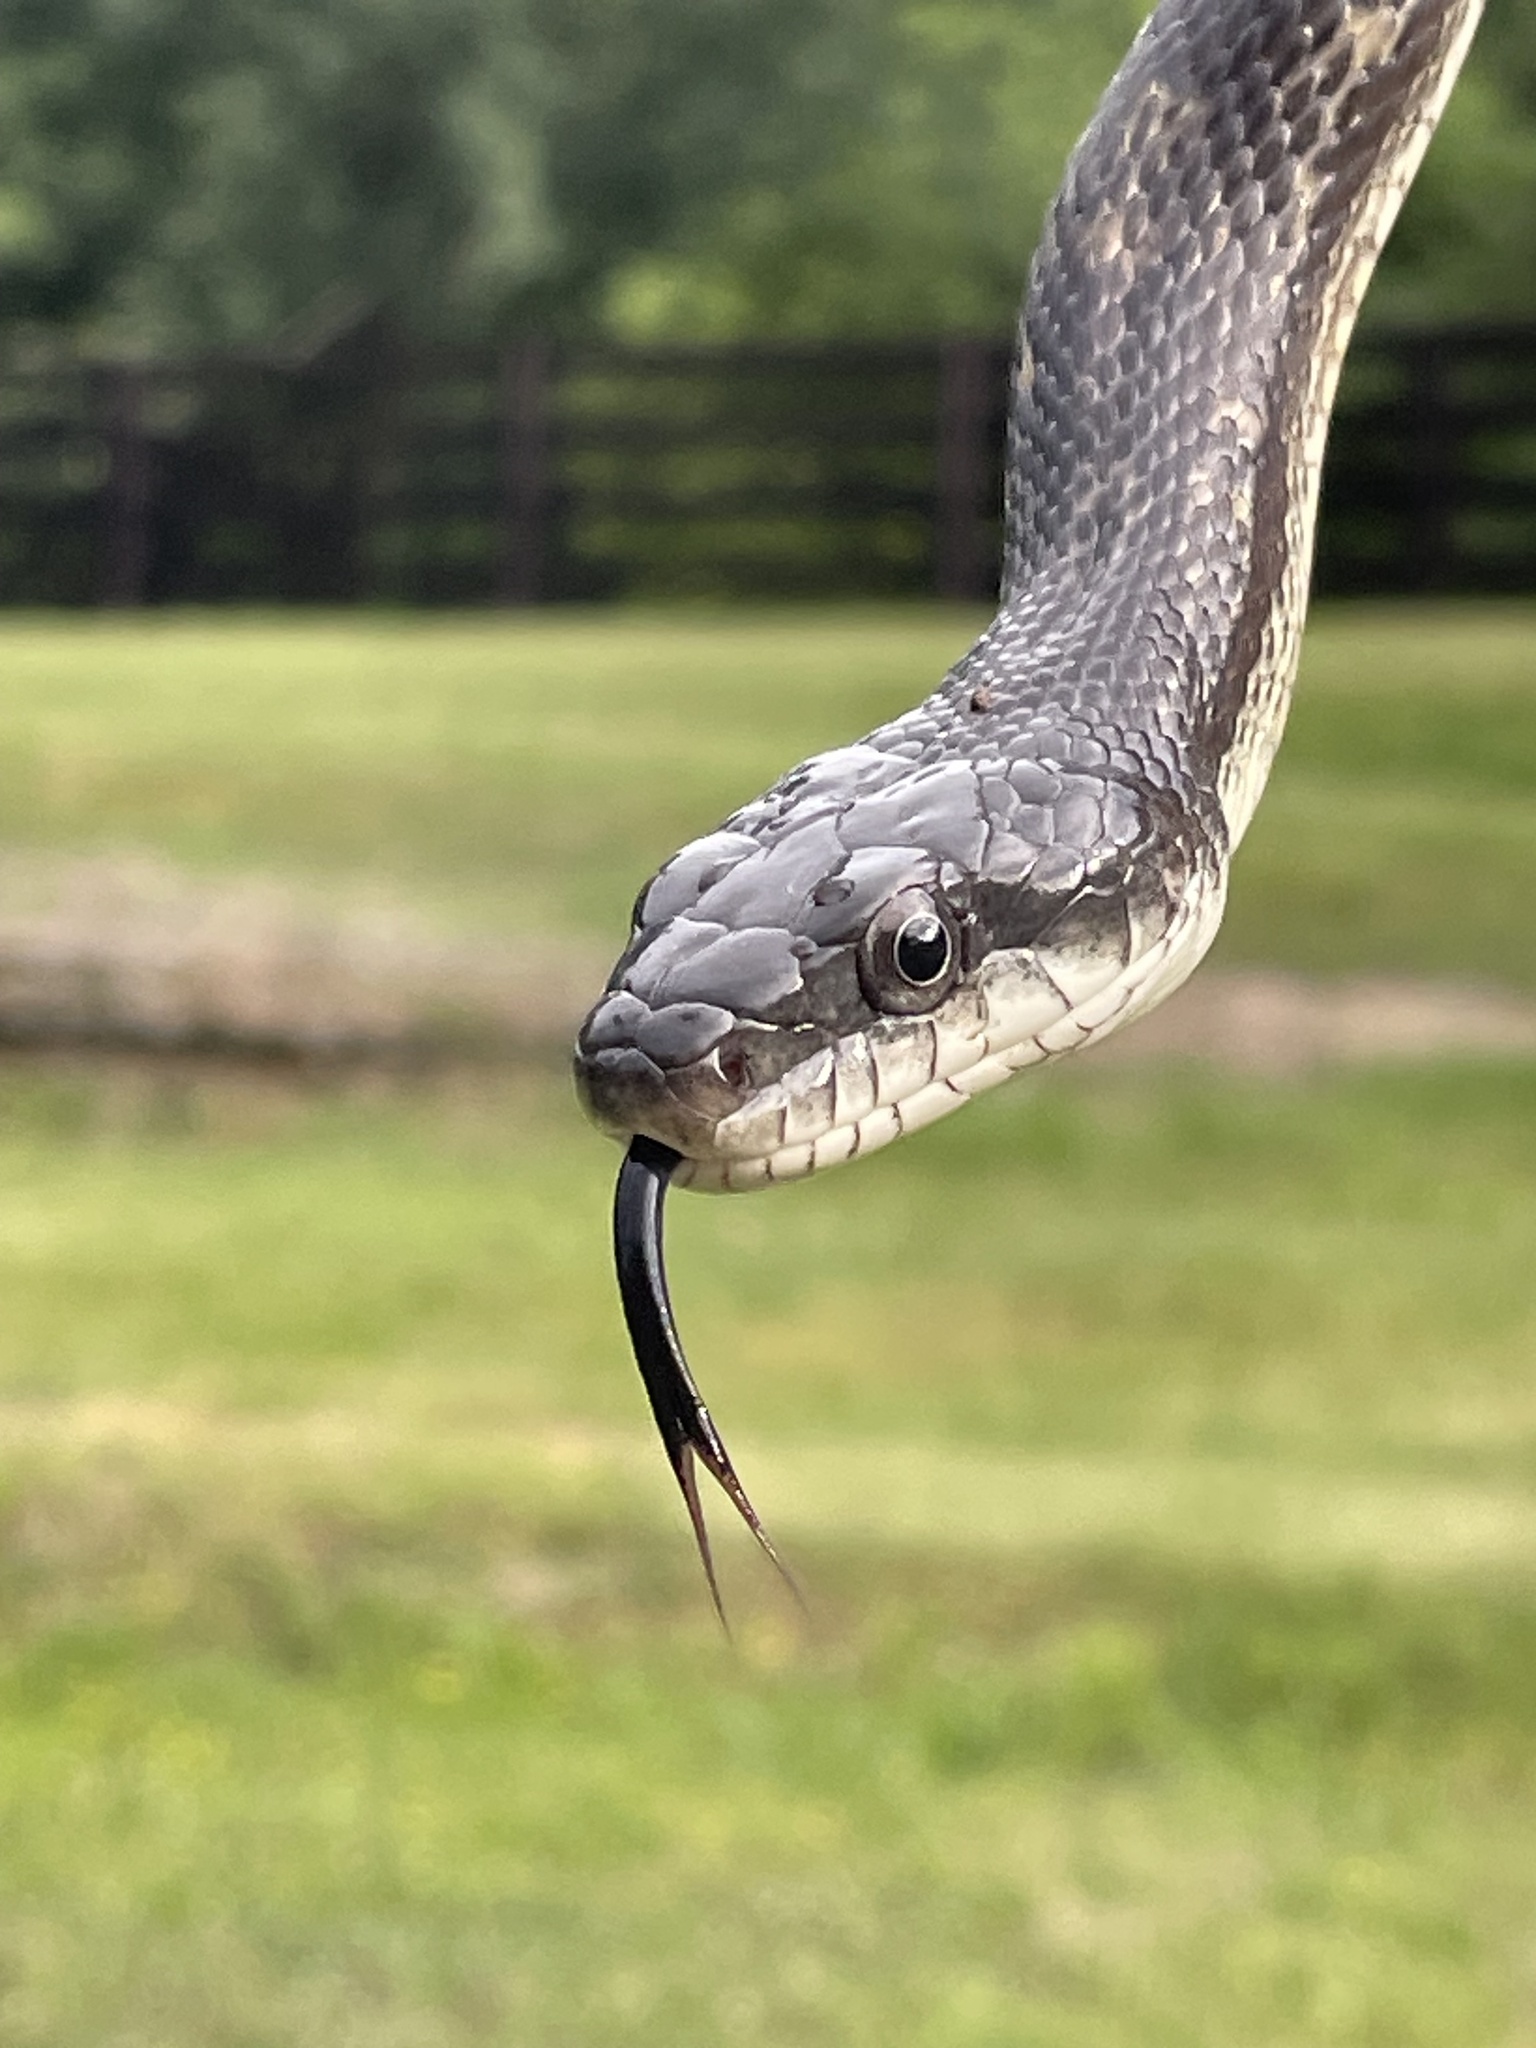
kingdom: Animalia
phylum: Chordata
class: Squamata
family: Colubridae
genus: Pantherophis
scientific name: Pantherophis spiloides
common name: Gray rat snake
